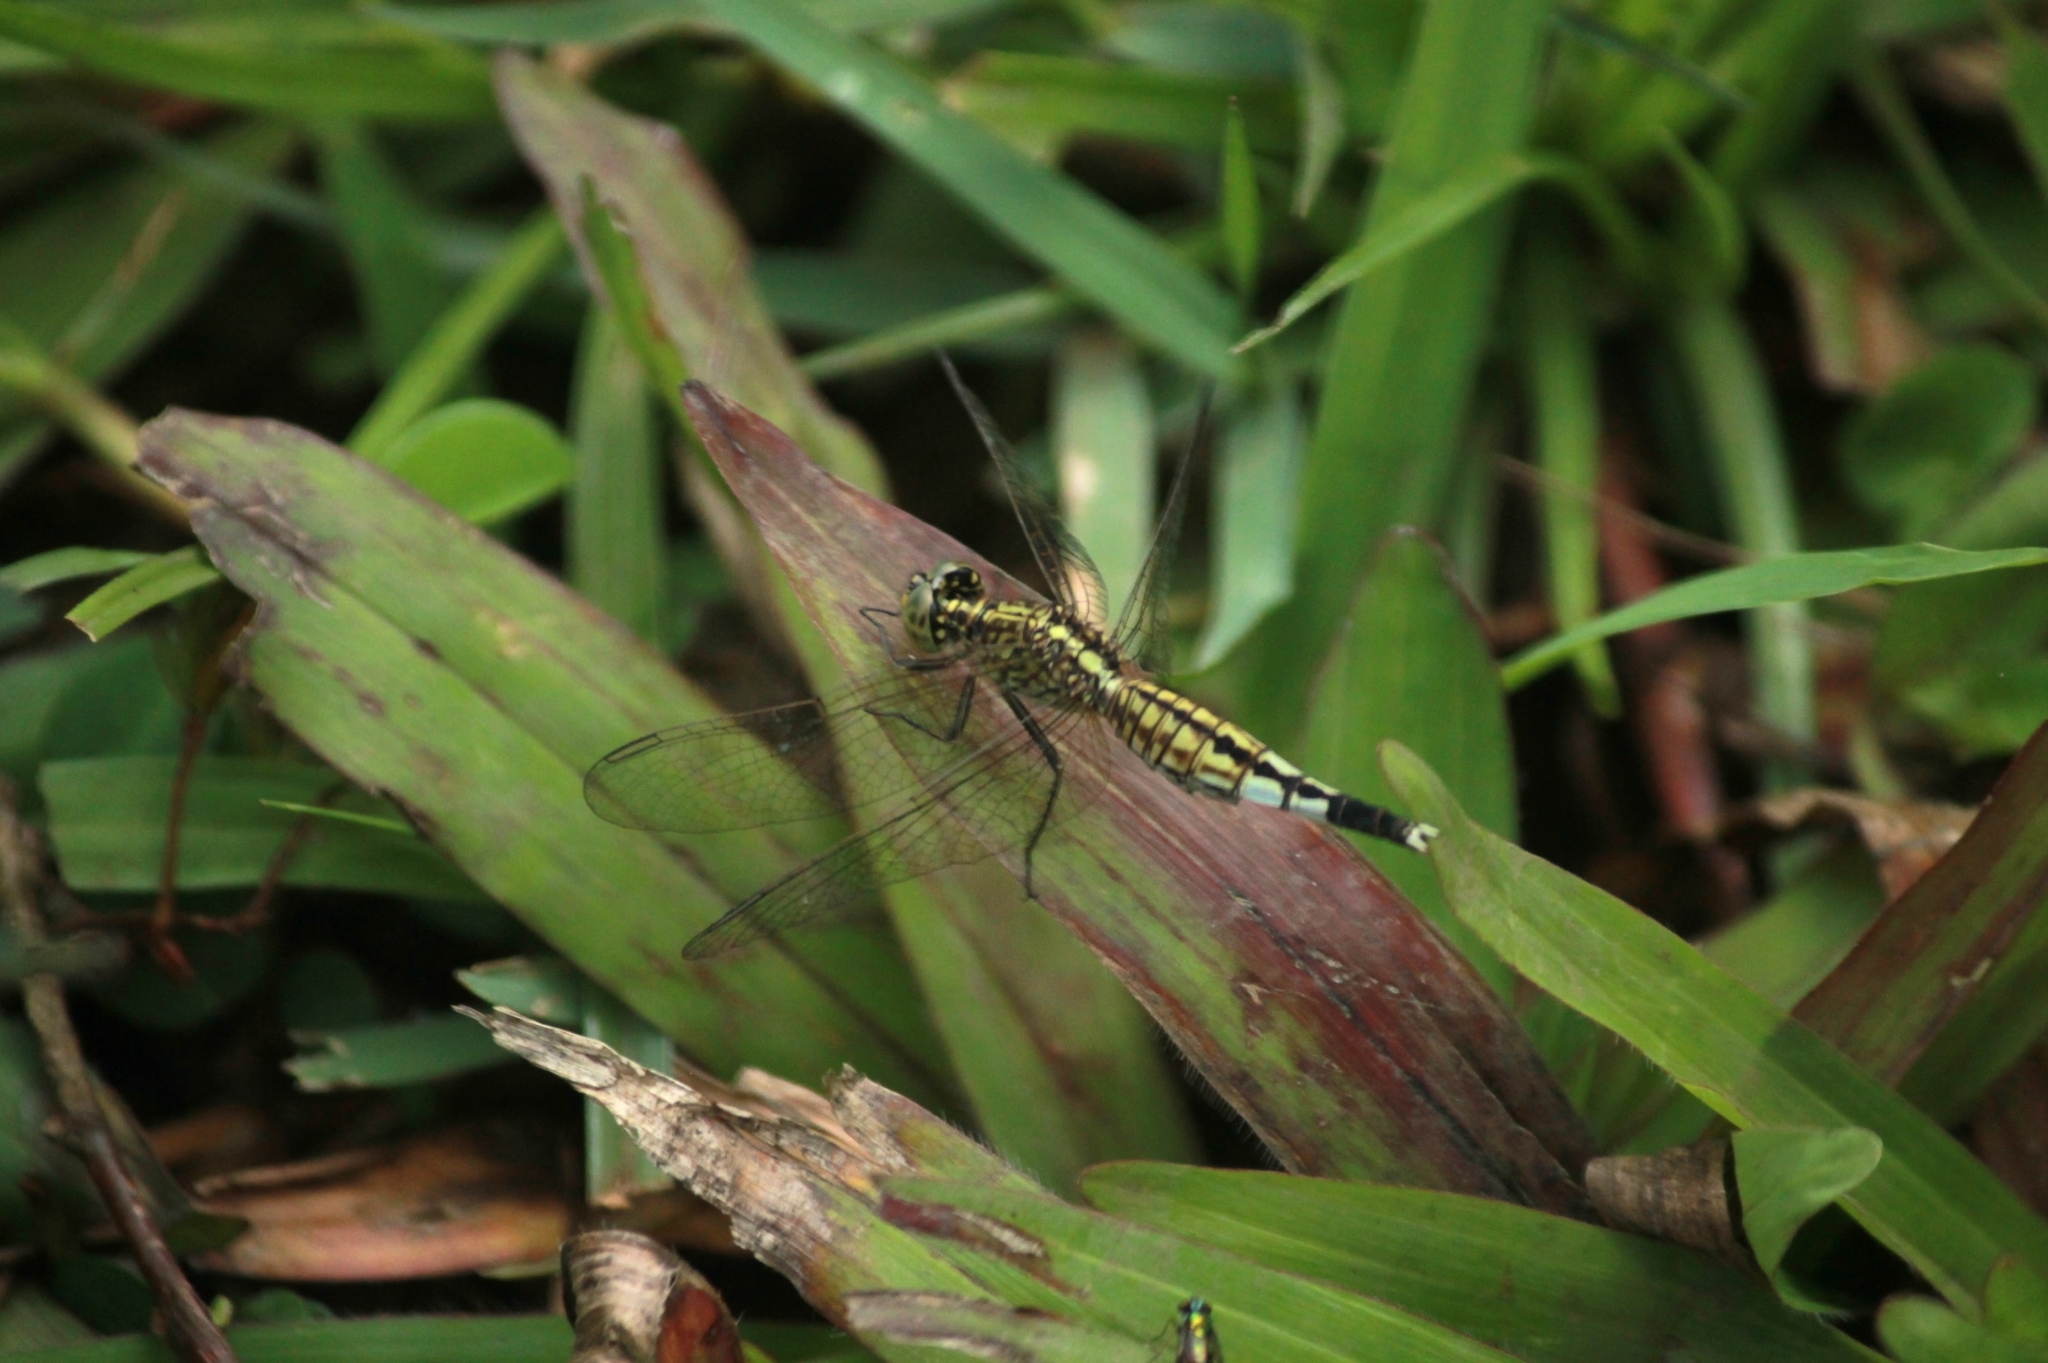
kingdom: Animalia
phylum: Arthropoda
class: Insecta
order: Odonata
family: Libellulidae
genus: Acisoma
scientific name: Acisoma panorpoides
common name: Asian pintail
